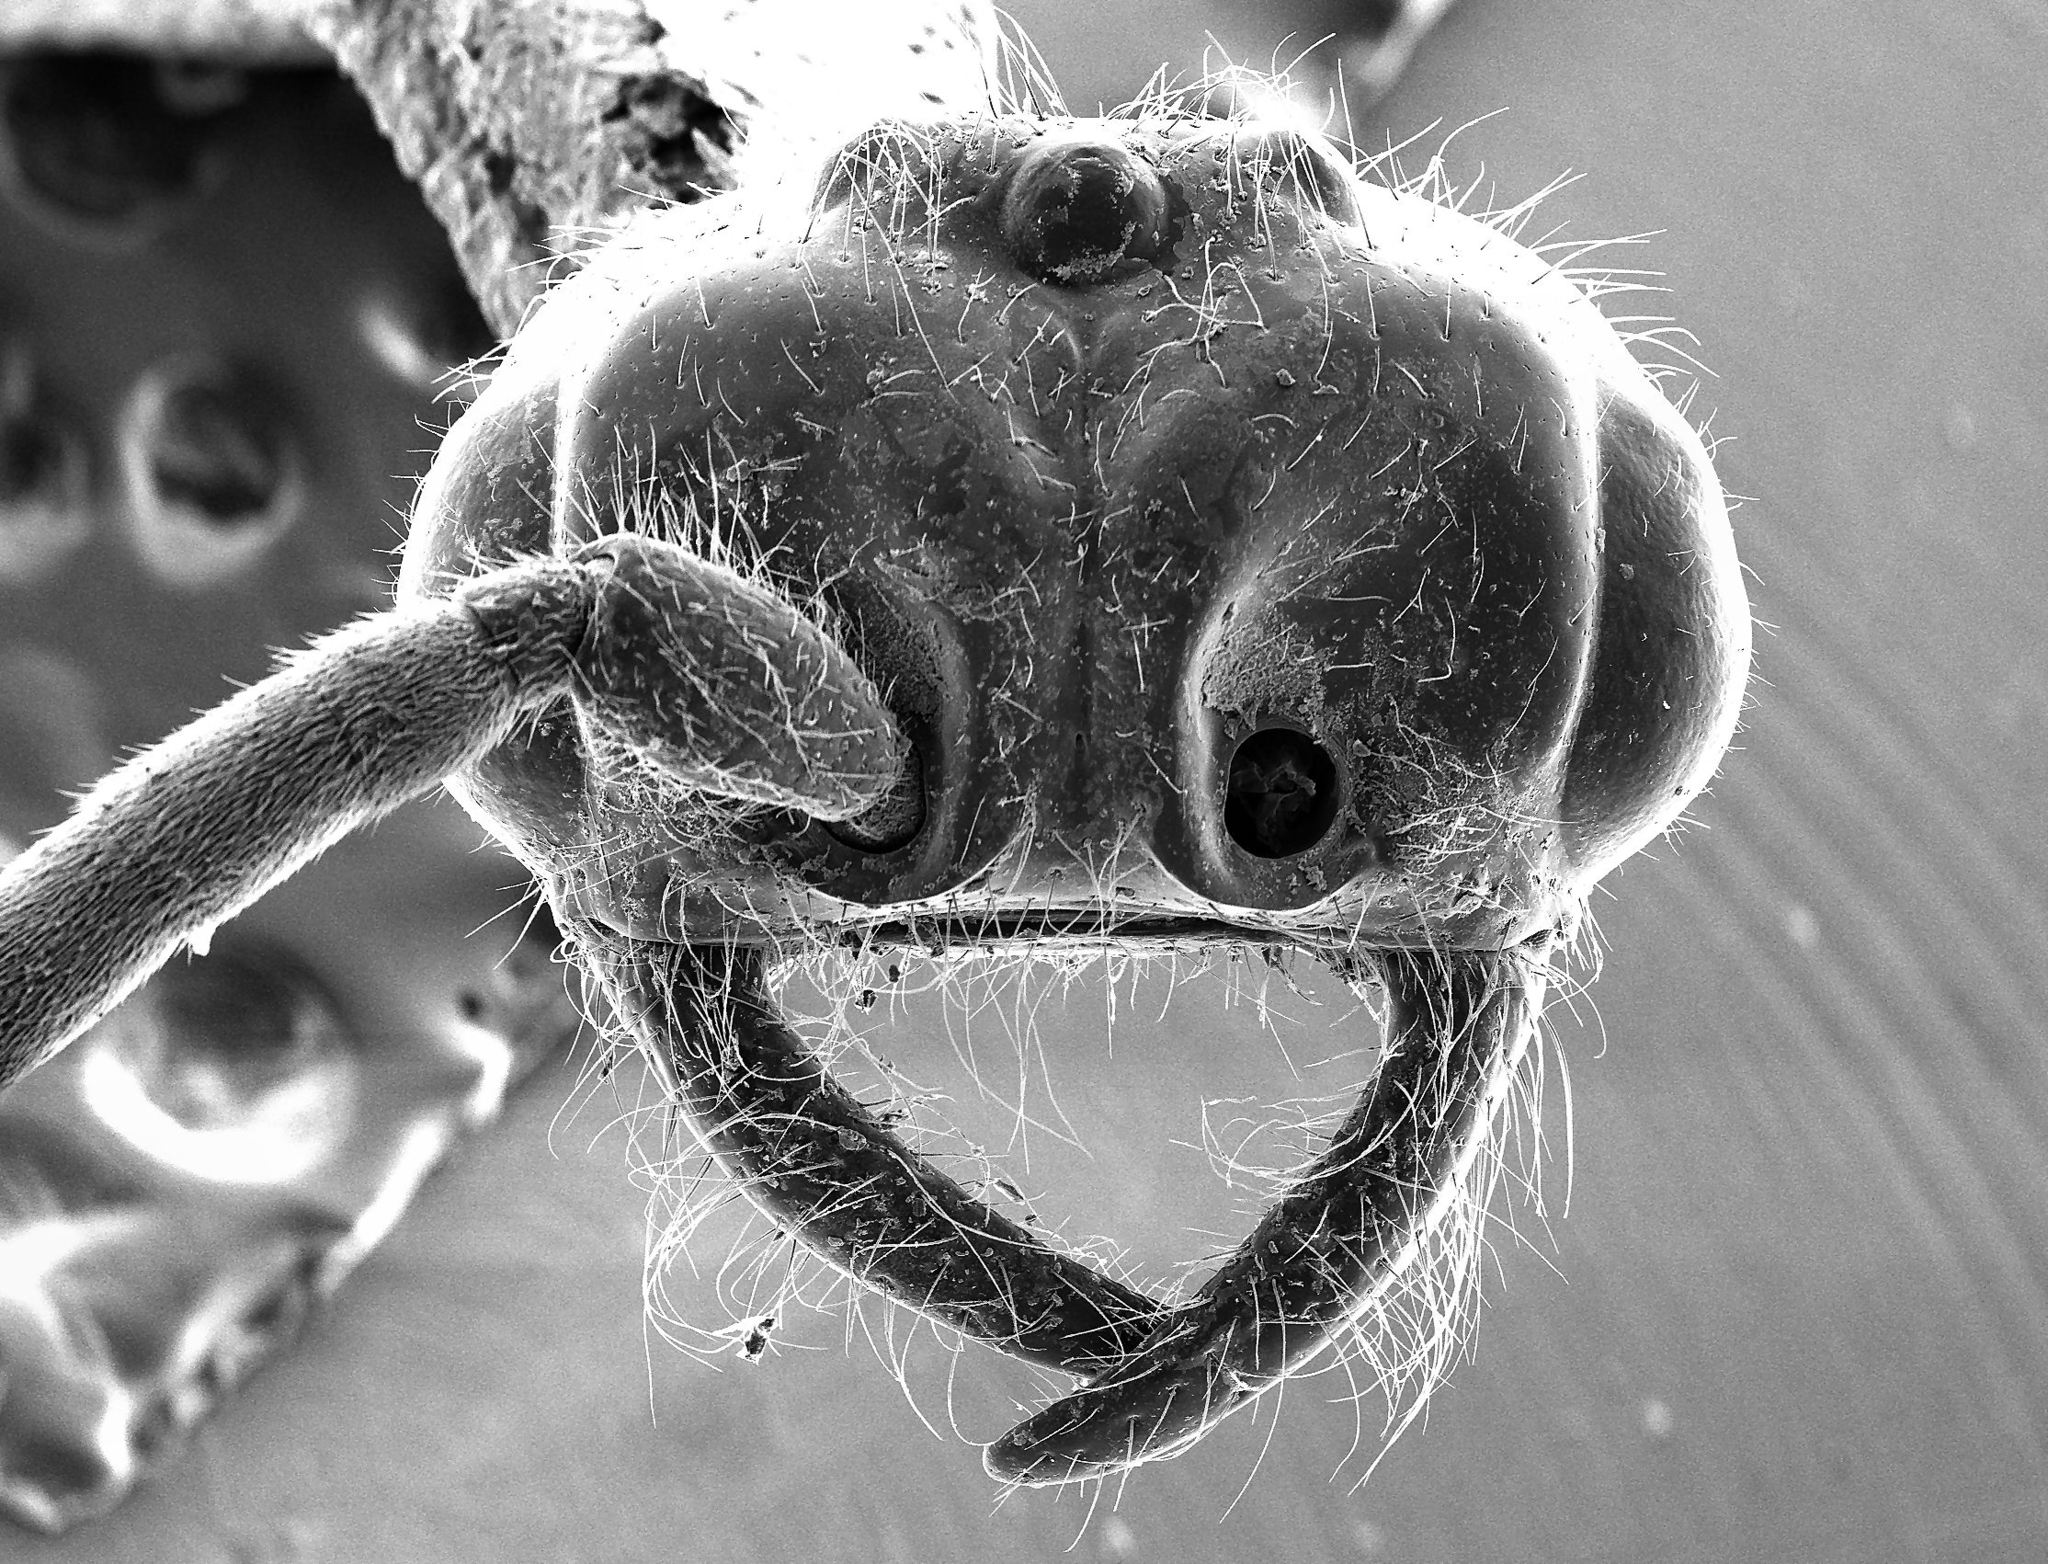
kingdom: Animalia
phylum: Arthropoda
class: Insecta
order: Hymenoptera
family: Formicidae
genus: Neivamyrmex
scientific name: Neivamyrmex kiowapache
